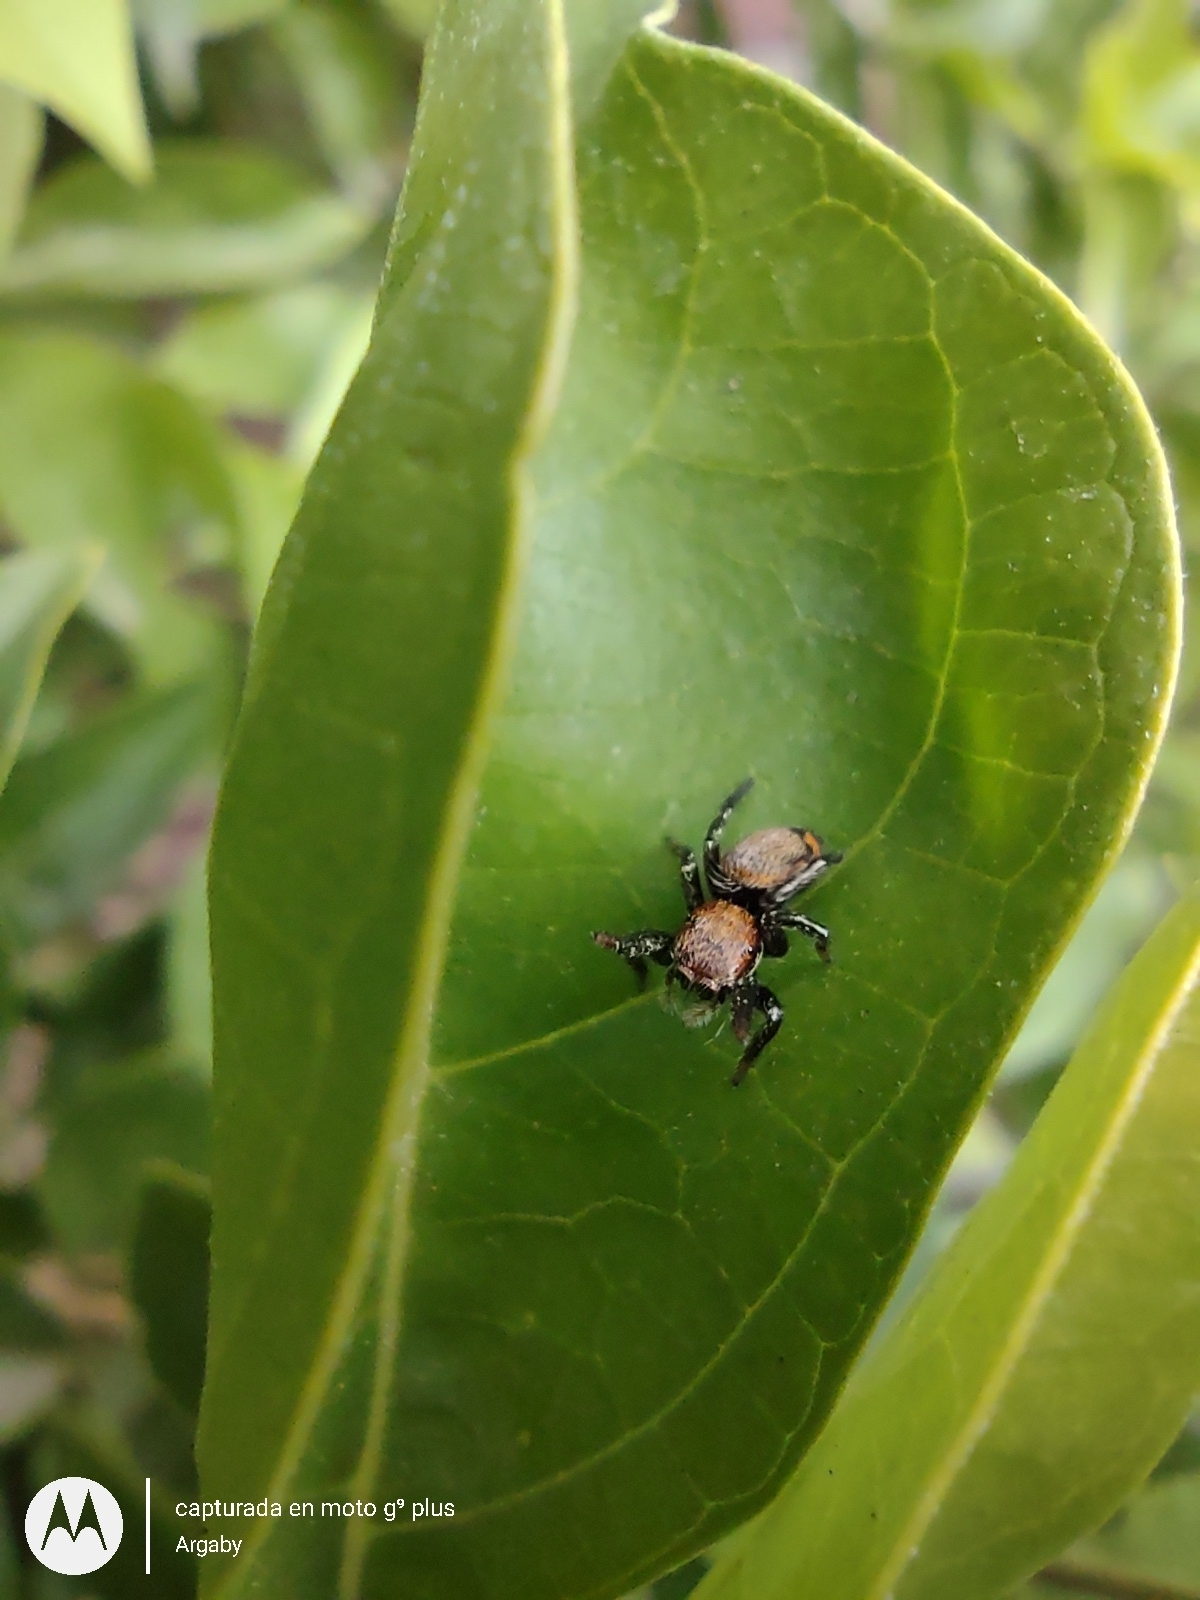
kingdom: Animalia
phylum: Arthropoda
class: Arachnida
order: Araneae
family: Salticidae
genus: Phiale
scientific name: Phiale roburifoliata
